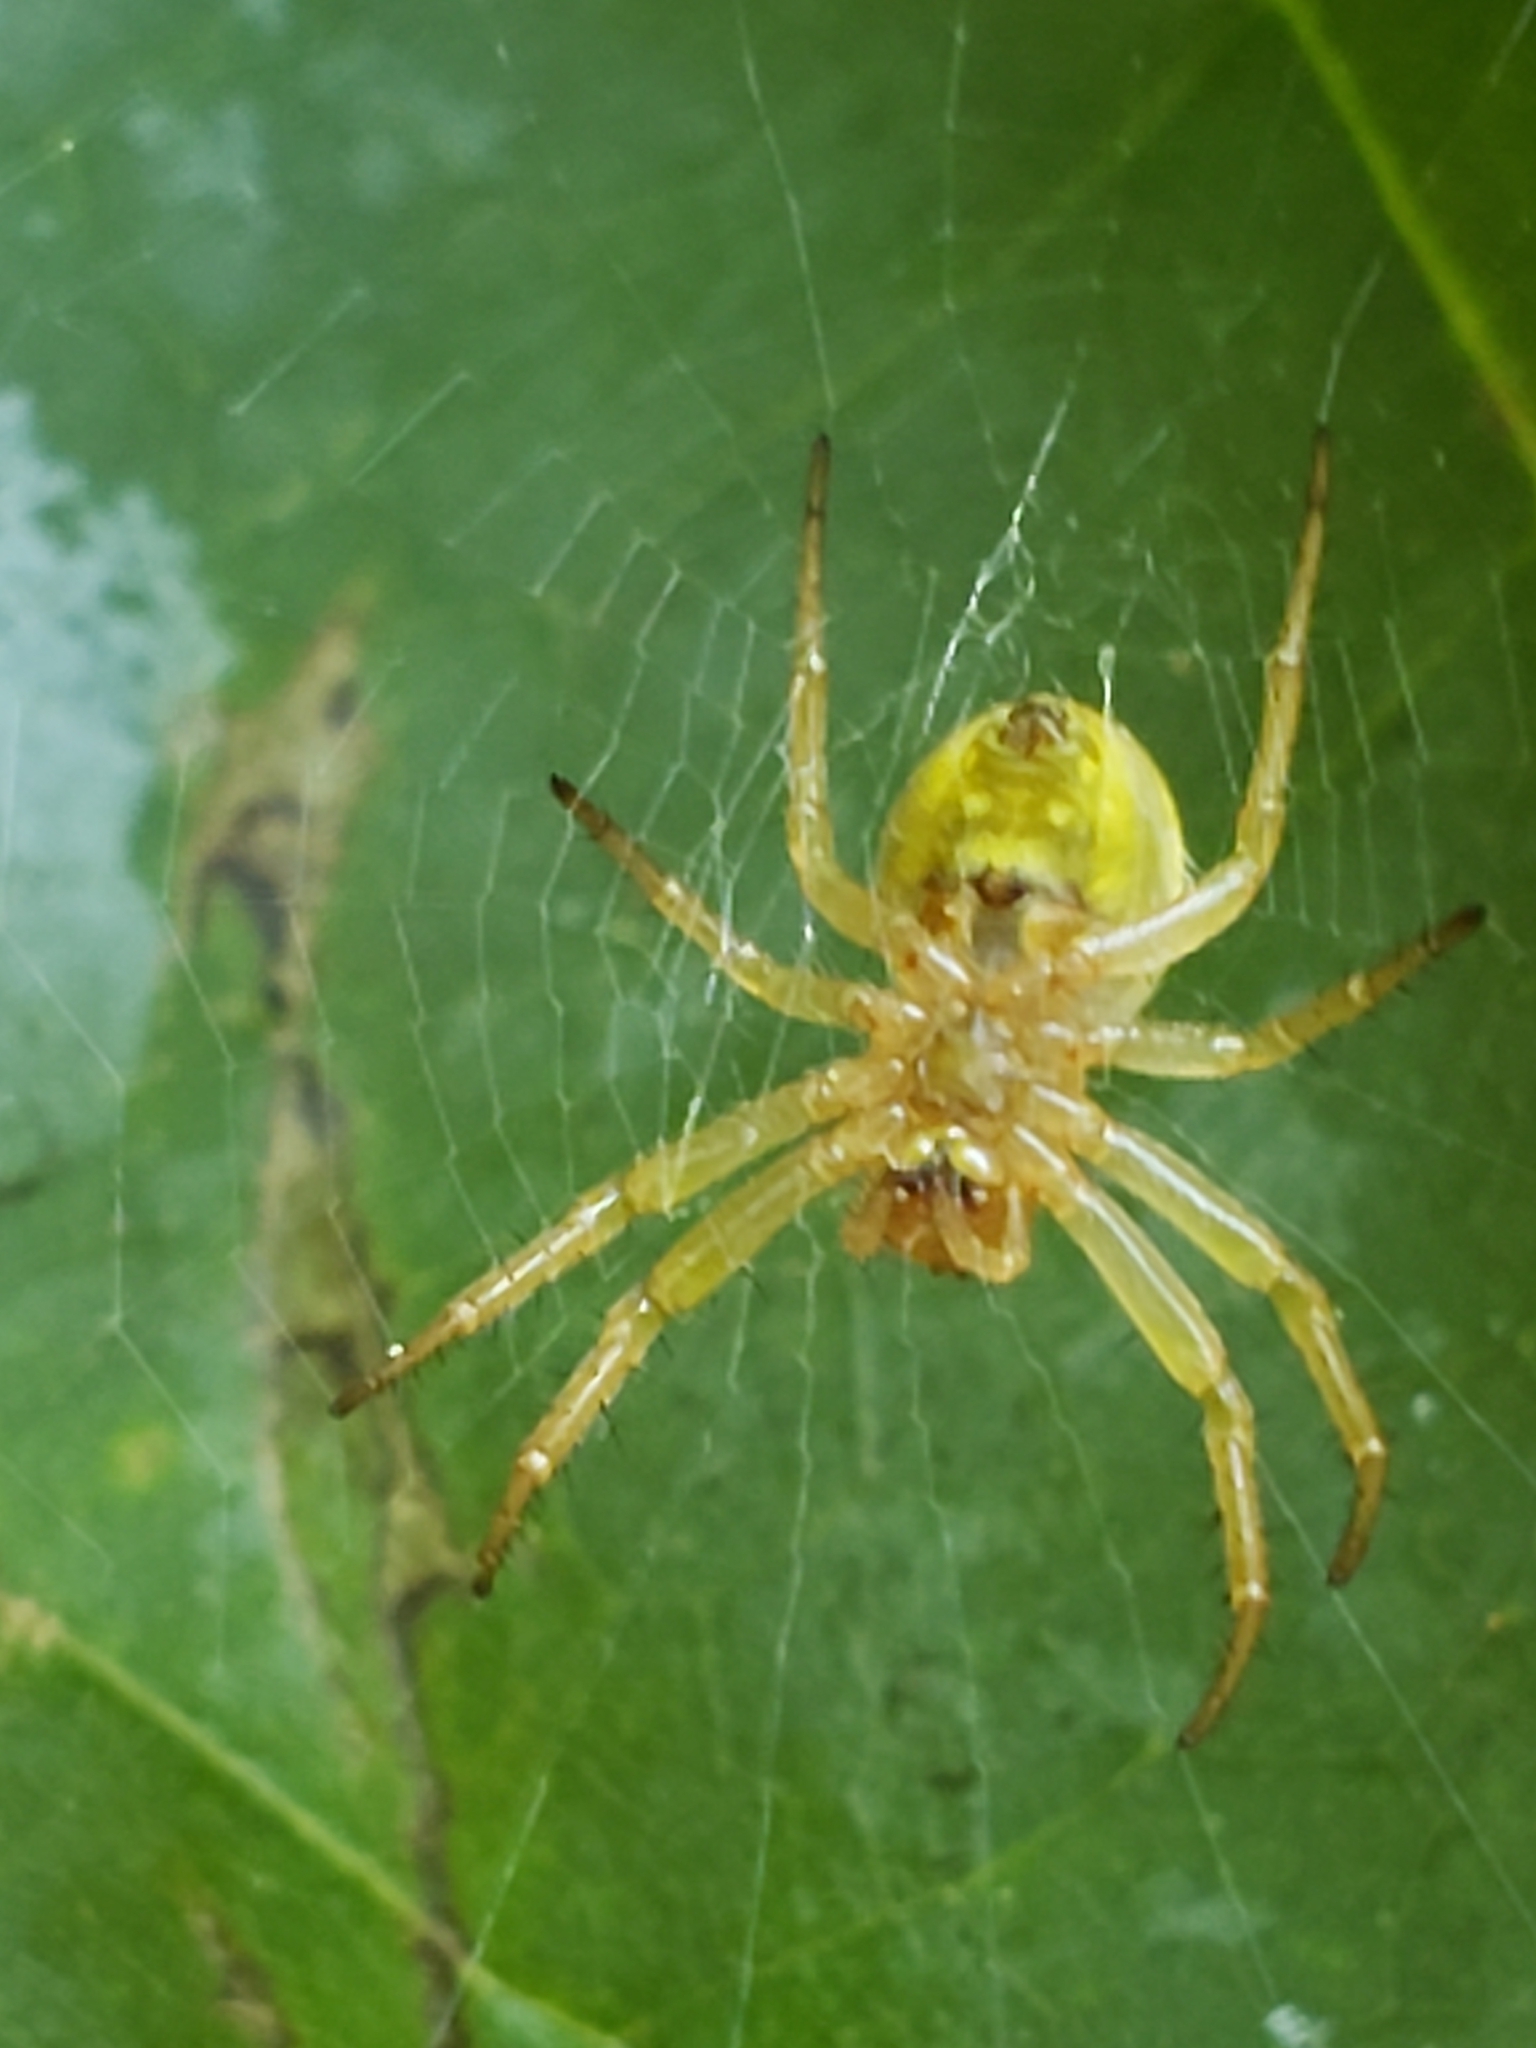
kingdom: Animalia
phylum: Arthropoda
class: Arachnida
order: Araneae
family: Araneidae
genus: Araniella
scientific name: Araniella displicata
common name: Sixspotted orb weaver
